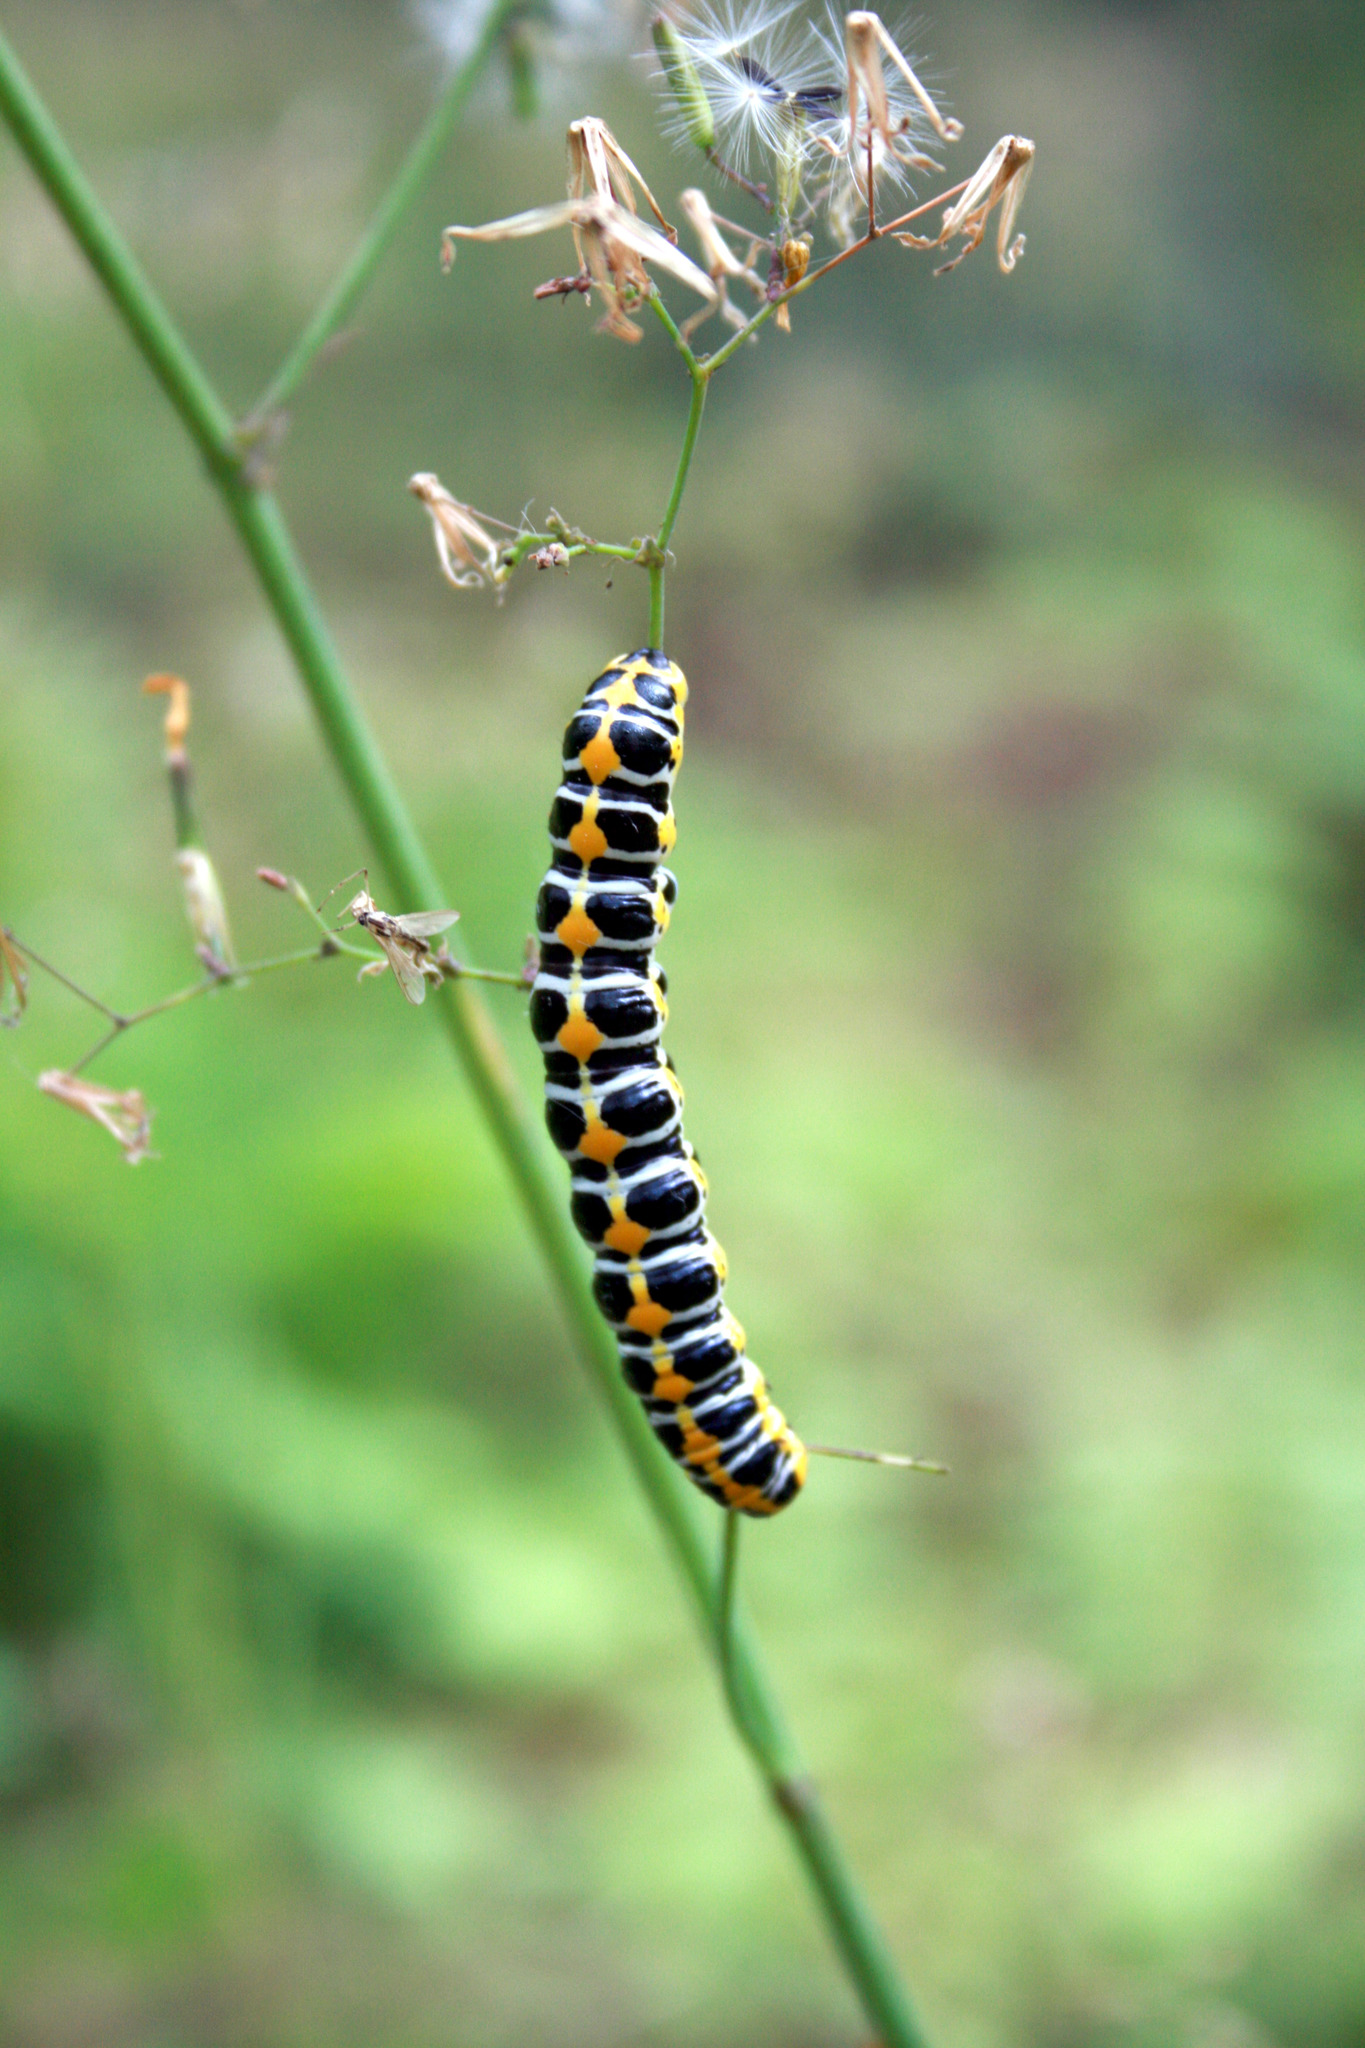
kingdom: Animalia
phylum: Arthropoda
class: Insecta
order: Lepidoptera
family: Noctuidae
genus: Cucullia
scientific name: Cucullia lactucae
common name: Lettuce shark
